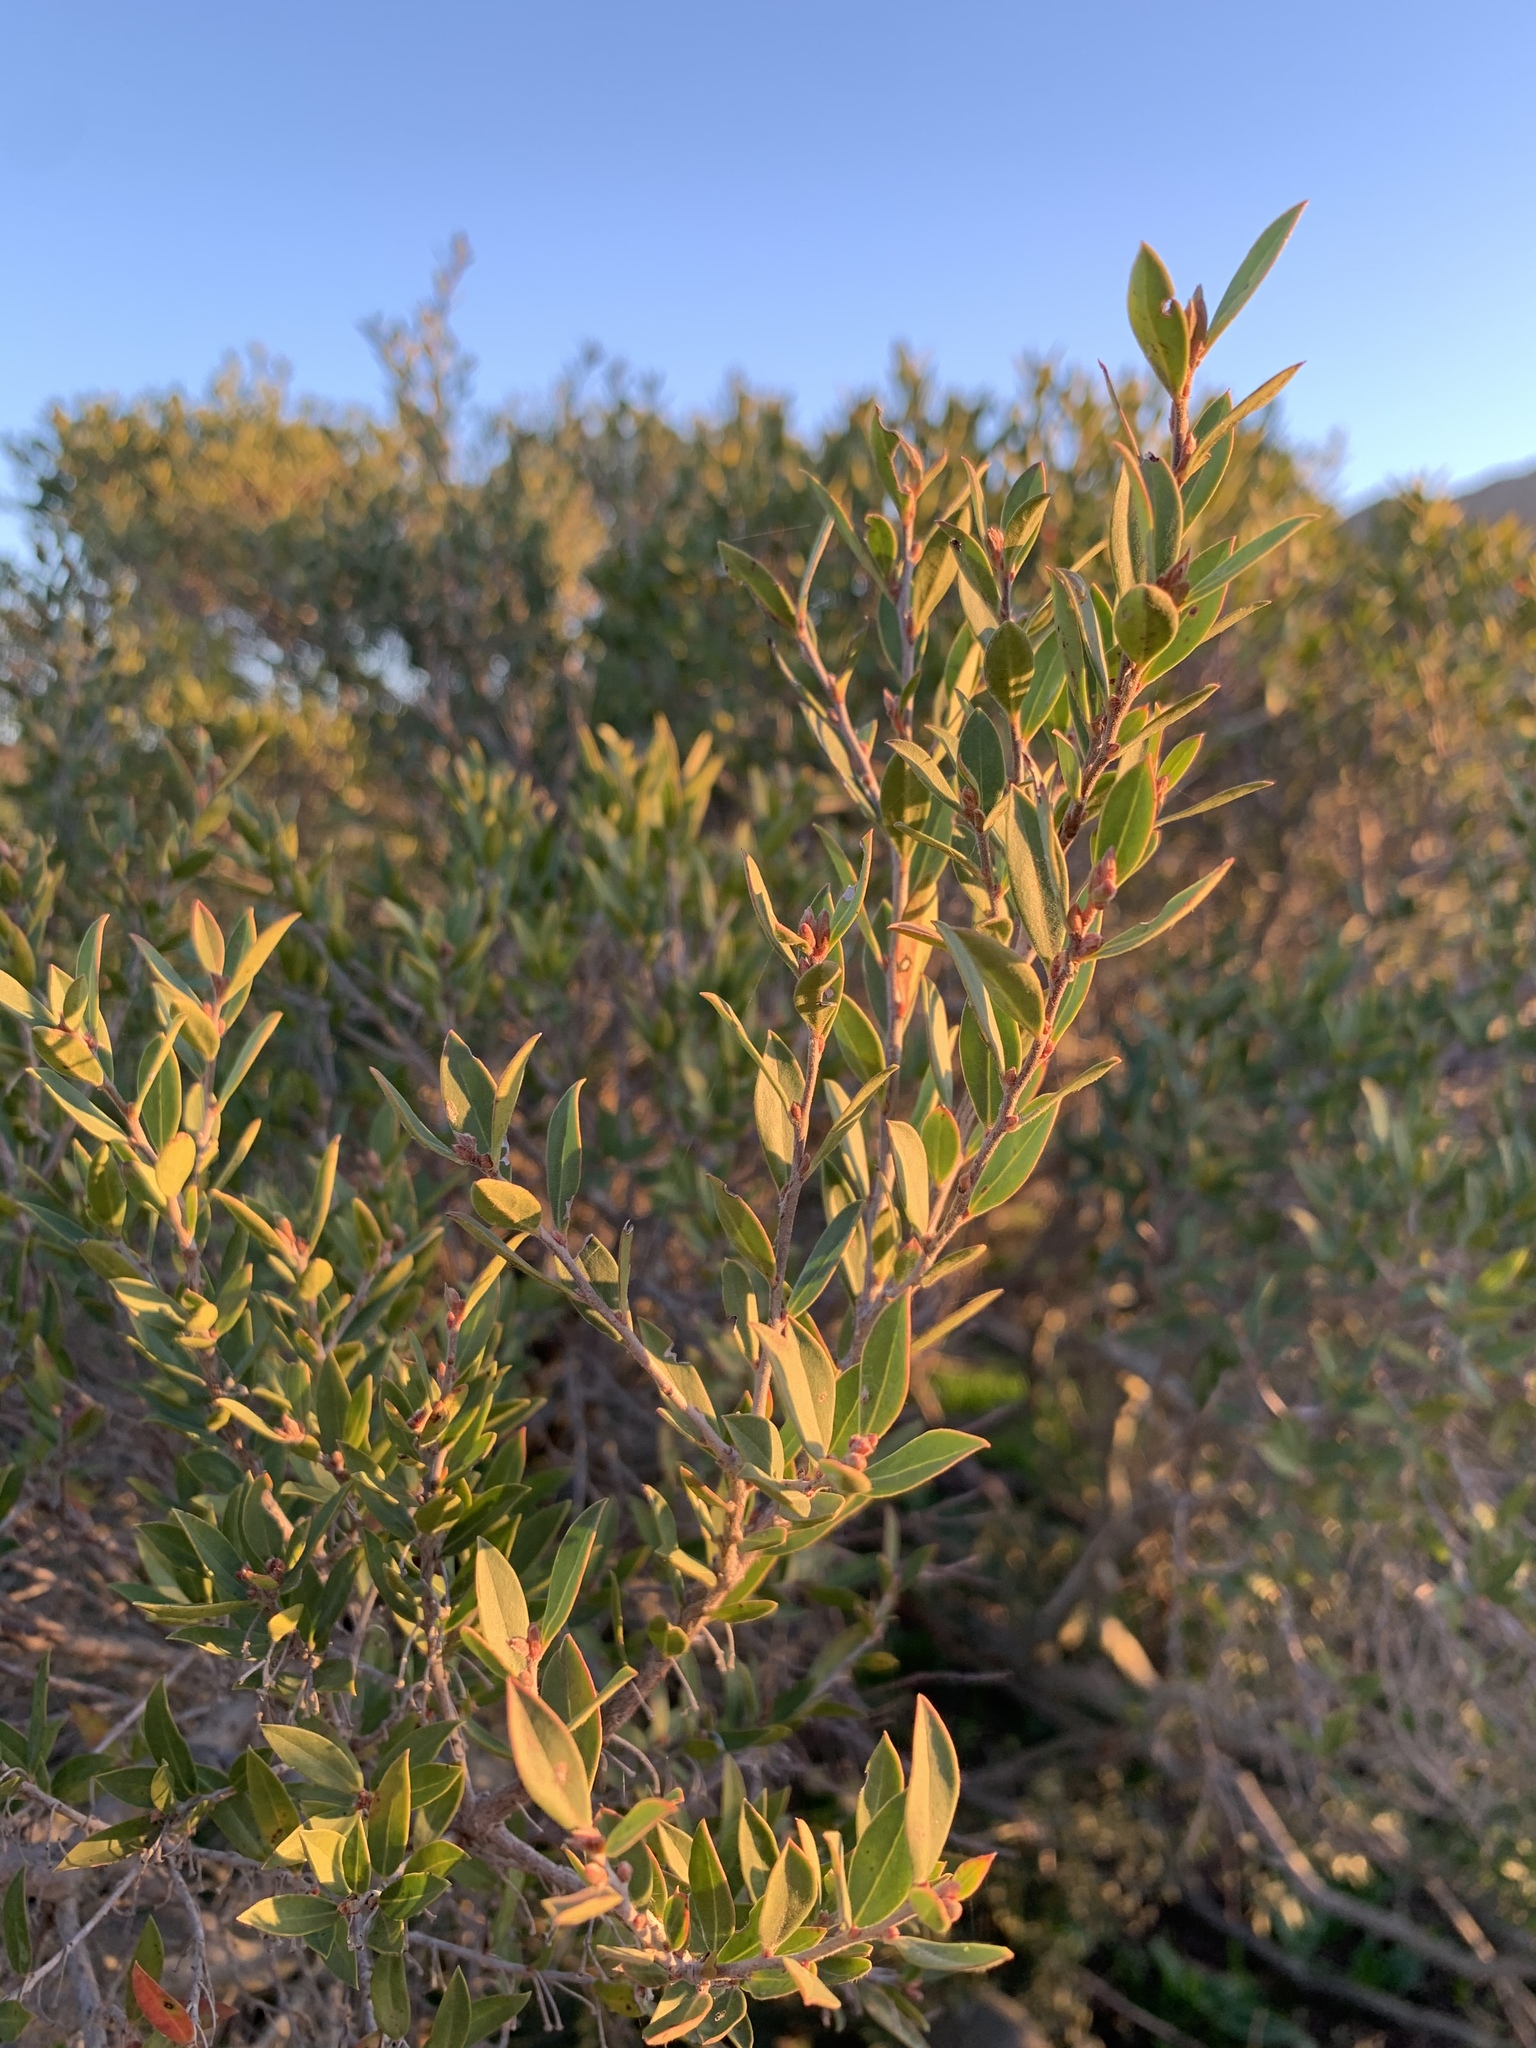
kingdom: Plantae
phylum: Tracheophyta
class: Magnoliopsida
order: Ericales
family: Ebenaceae
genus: Diospyros
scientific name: Diospyros glabra
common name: Fynbos star apple
